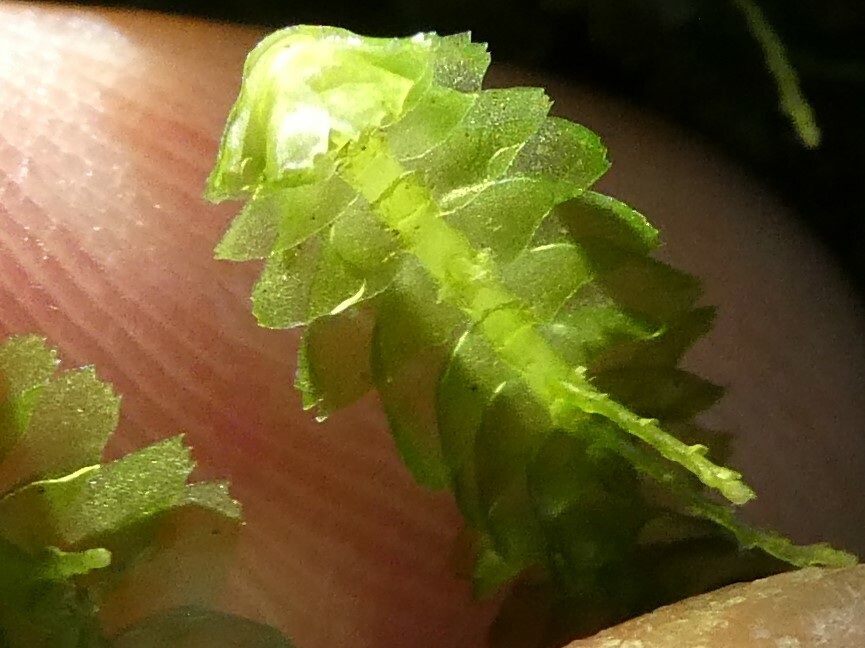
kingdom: Plantae
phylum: Marchantiophyta
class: Jungermanniopsida
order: Jungermanniales
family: Lepidoziaceae
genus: Bazzania
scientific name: Bazzania trilobata
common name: Three-lobed whipwort
